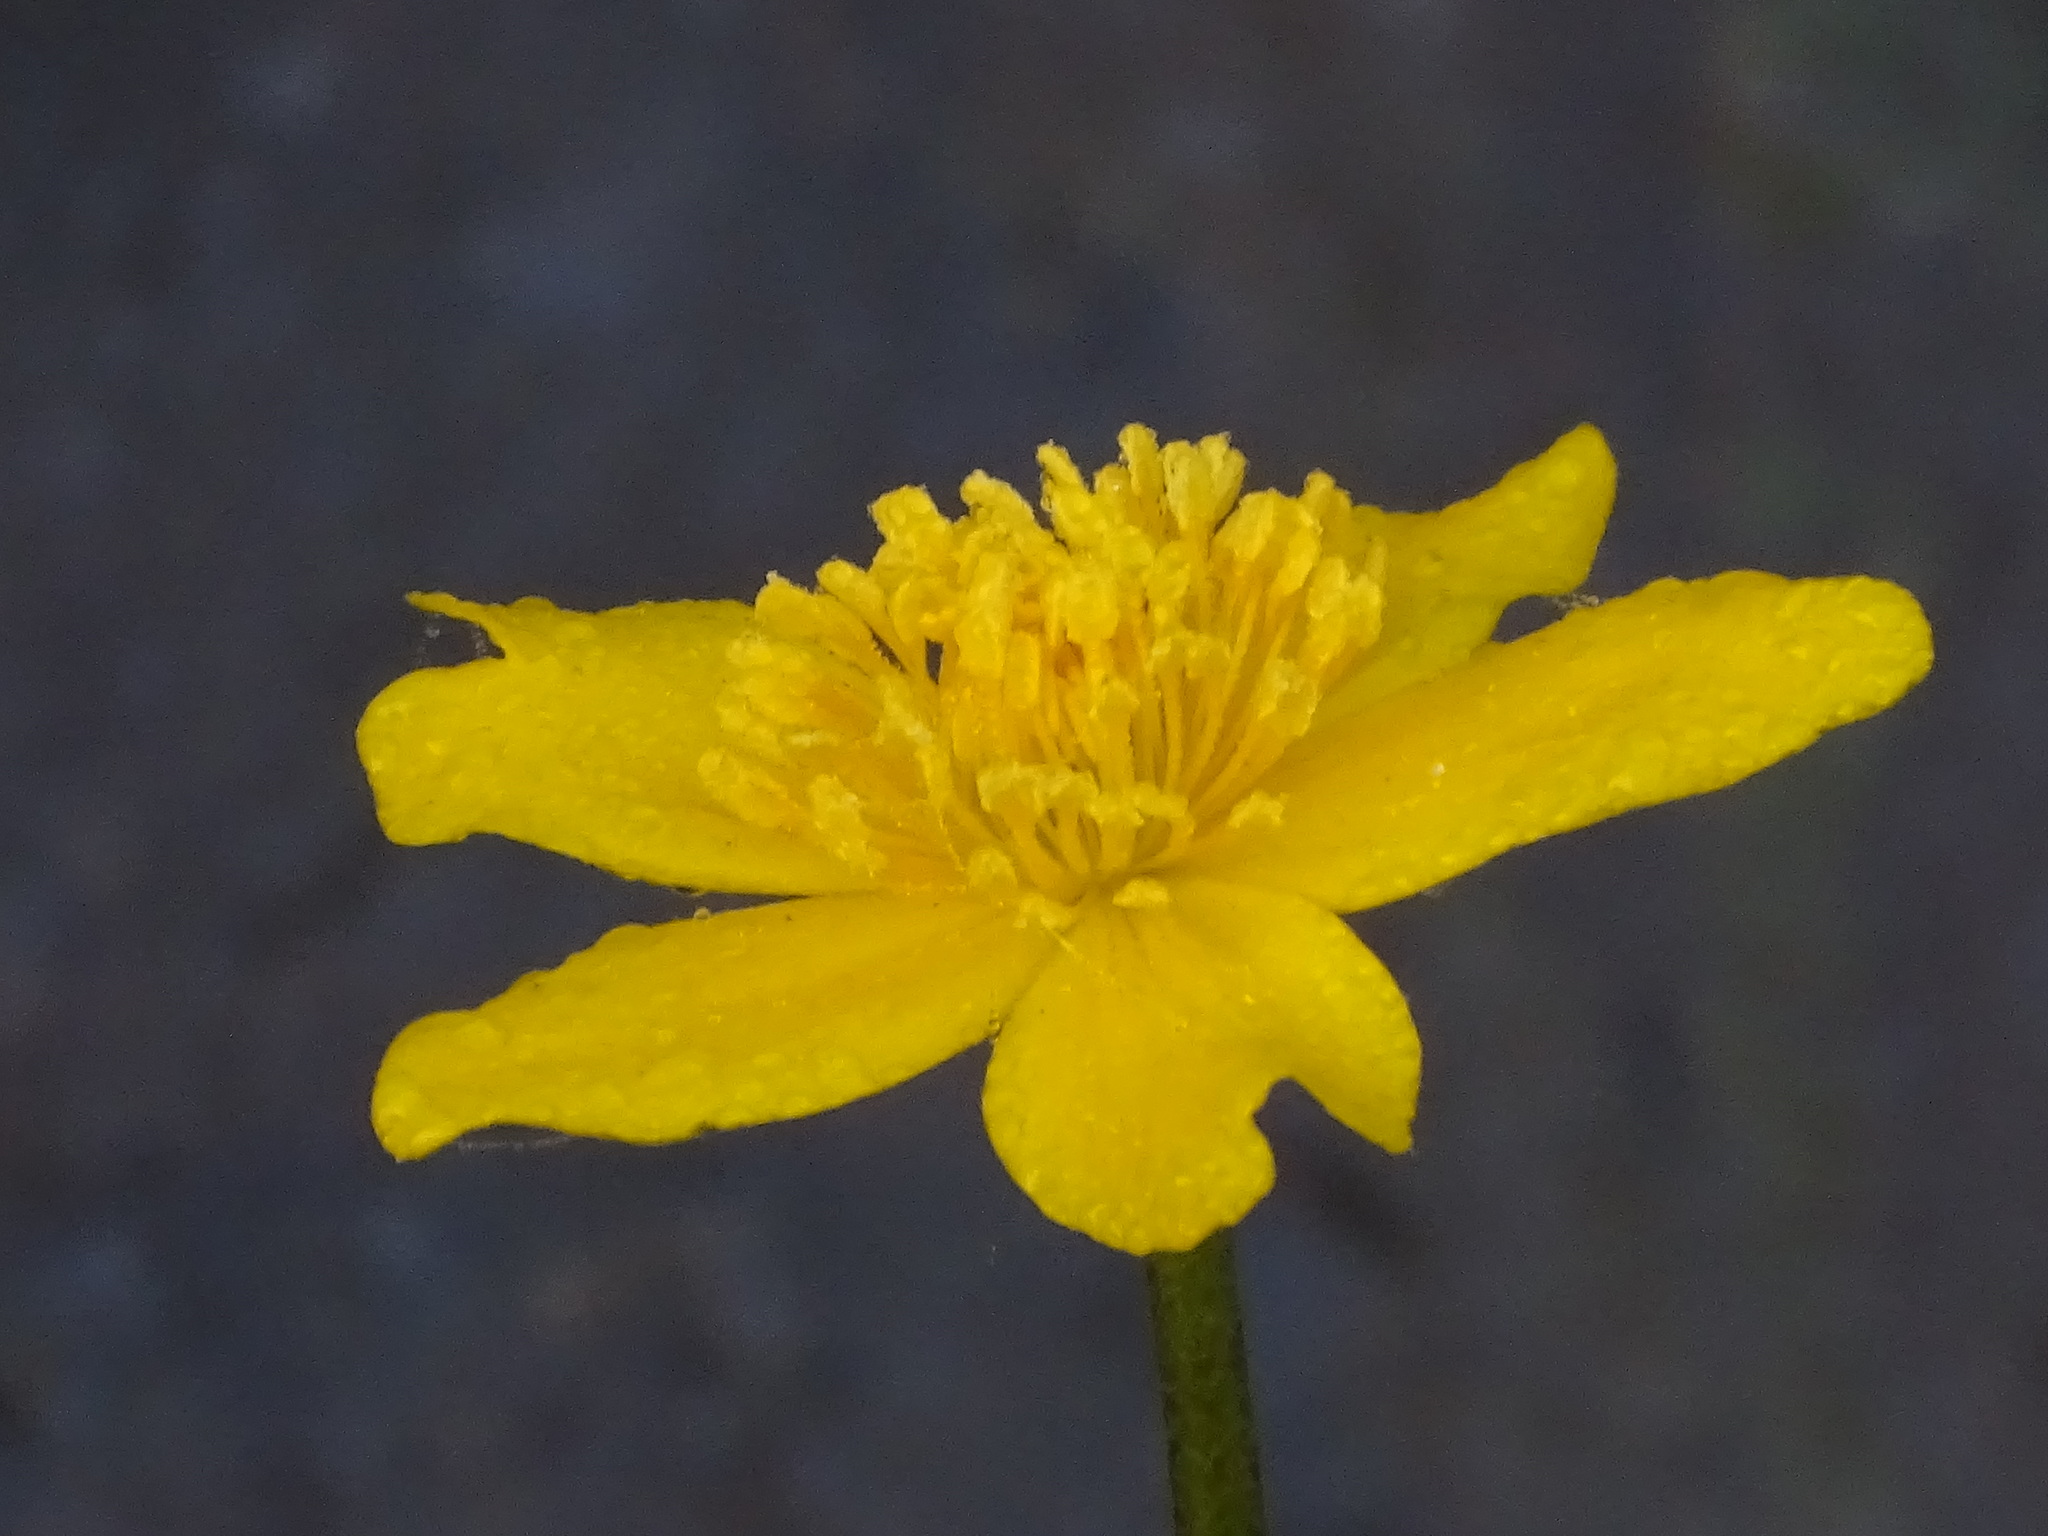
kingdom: Plantae
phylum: Tracheophyta
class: Magnoliopsida
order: Ranunculales
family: Ranunculaceae
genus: Caltha
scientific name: Caltha palustris
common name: Marsh marigold
